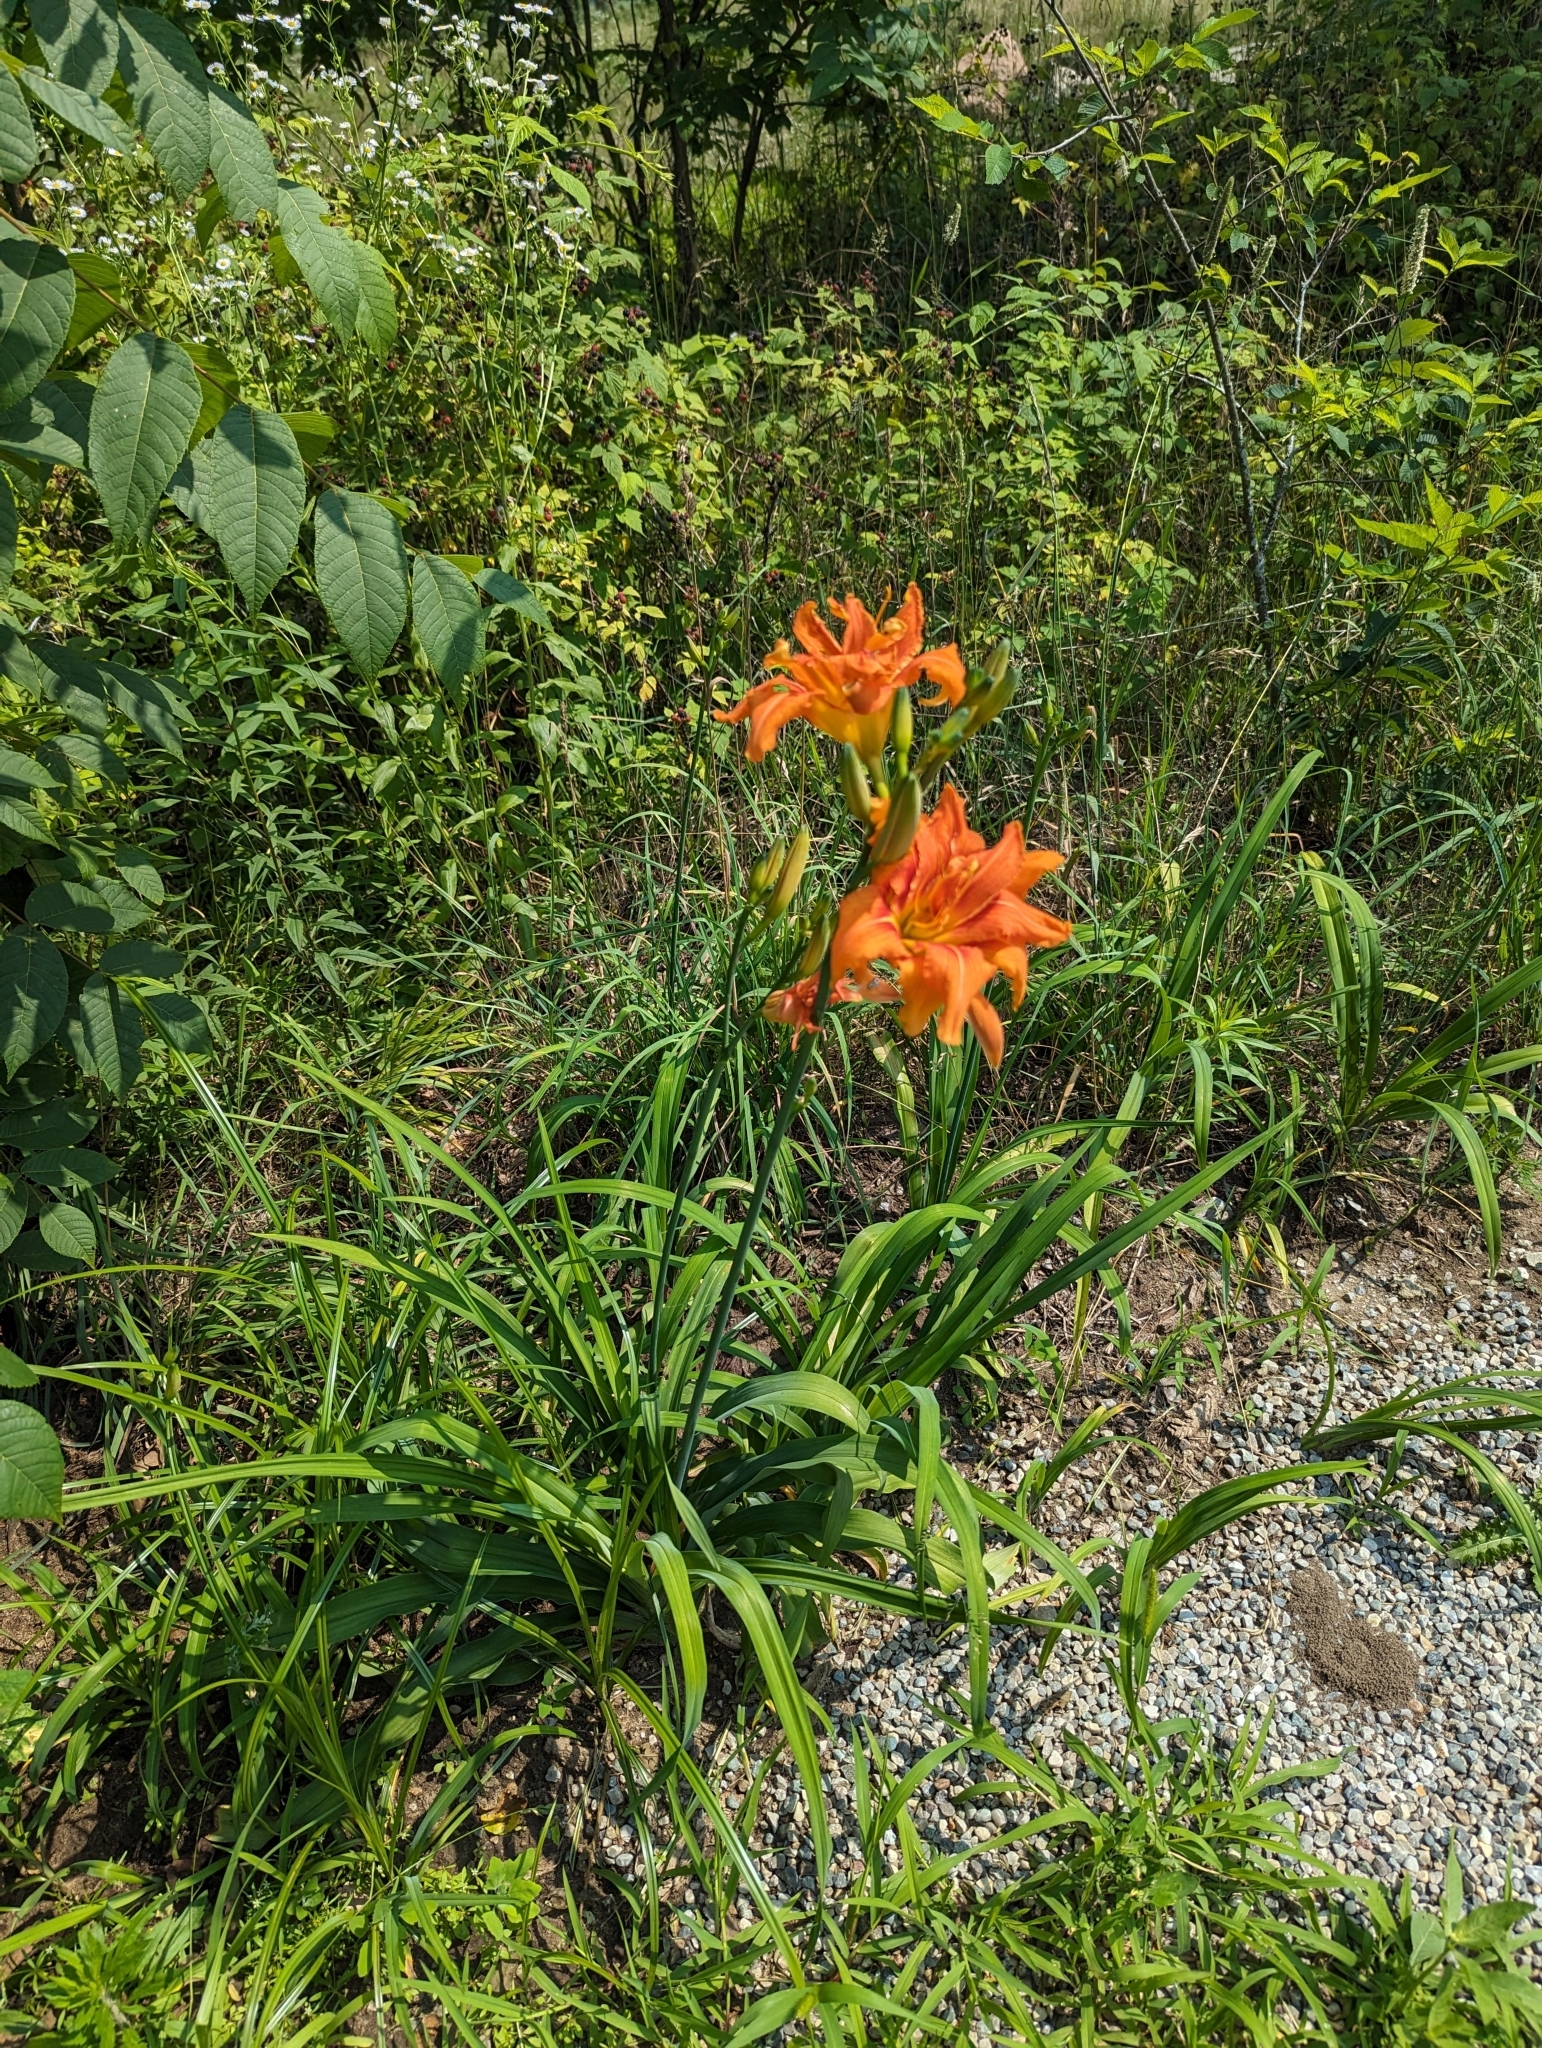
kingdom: Plantae
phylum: Tracheophyta
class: Liliopsida
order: Asparagales
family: Asphodelaceae
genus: Hemerocallis
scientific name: Hemerocallis fulva
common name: Orange day-lily
